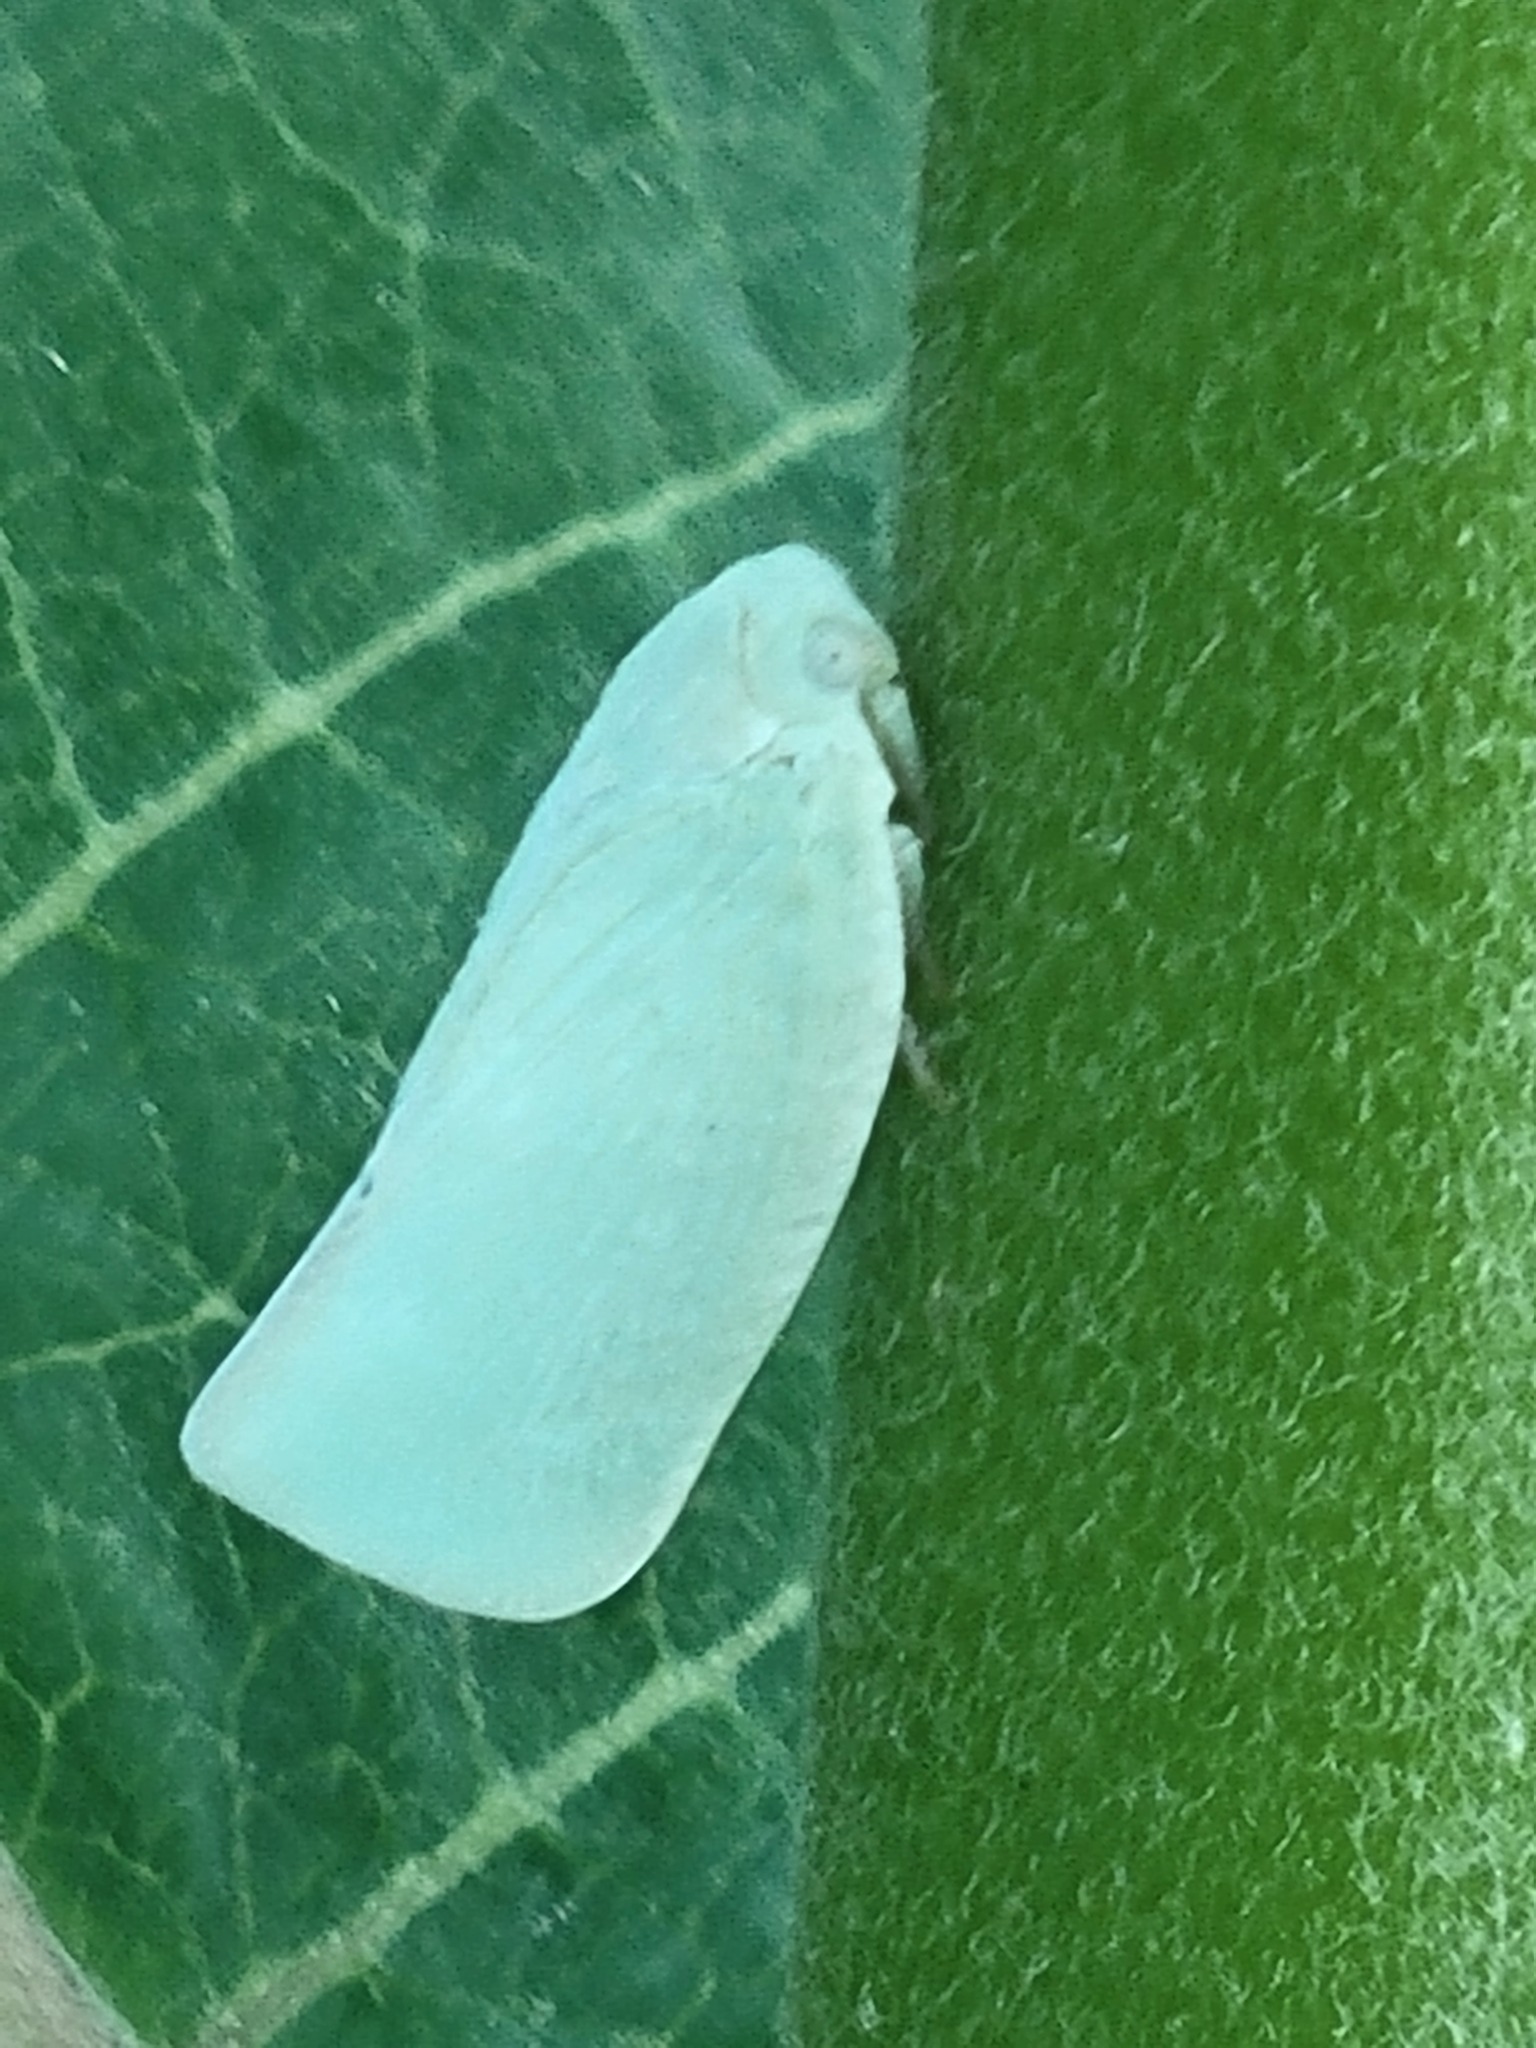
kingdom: Animalia
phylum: Arthropoda
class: Insecta
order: Hemiptera
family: Flatidae
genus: Flatormenis
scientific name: Flatormenis proxima
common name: Northern flatid planthopper
